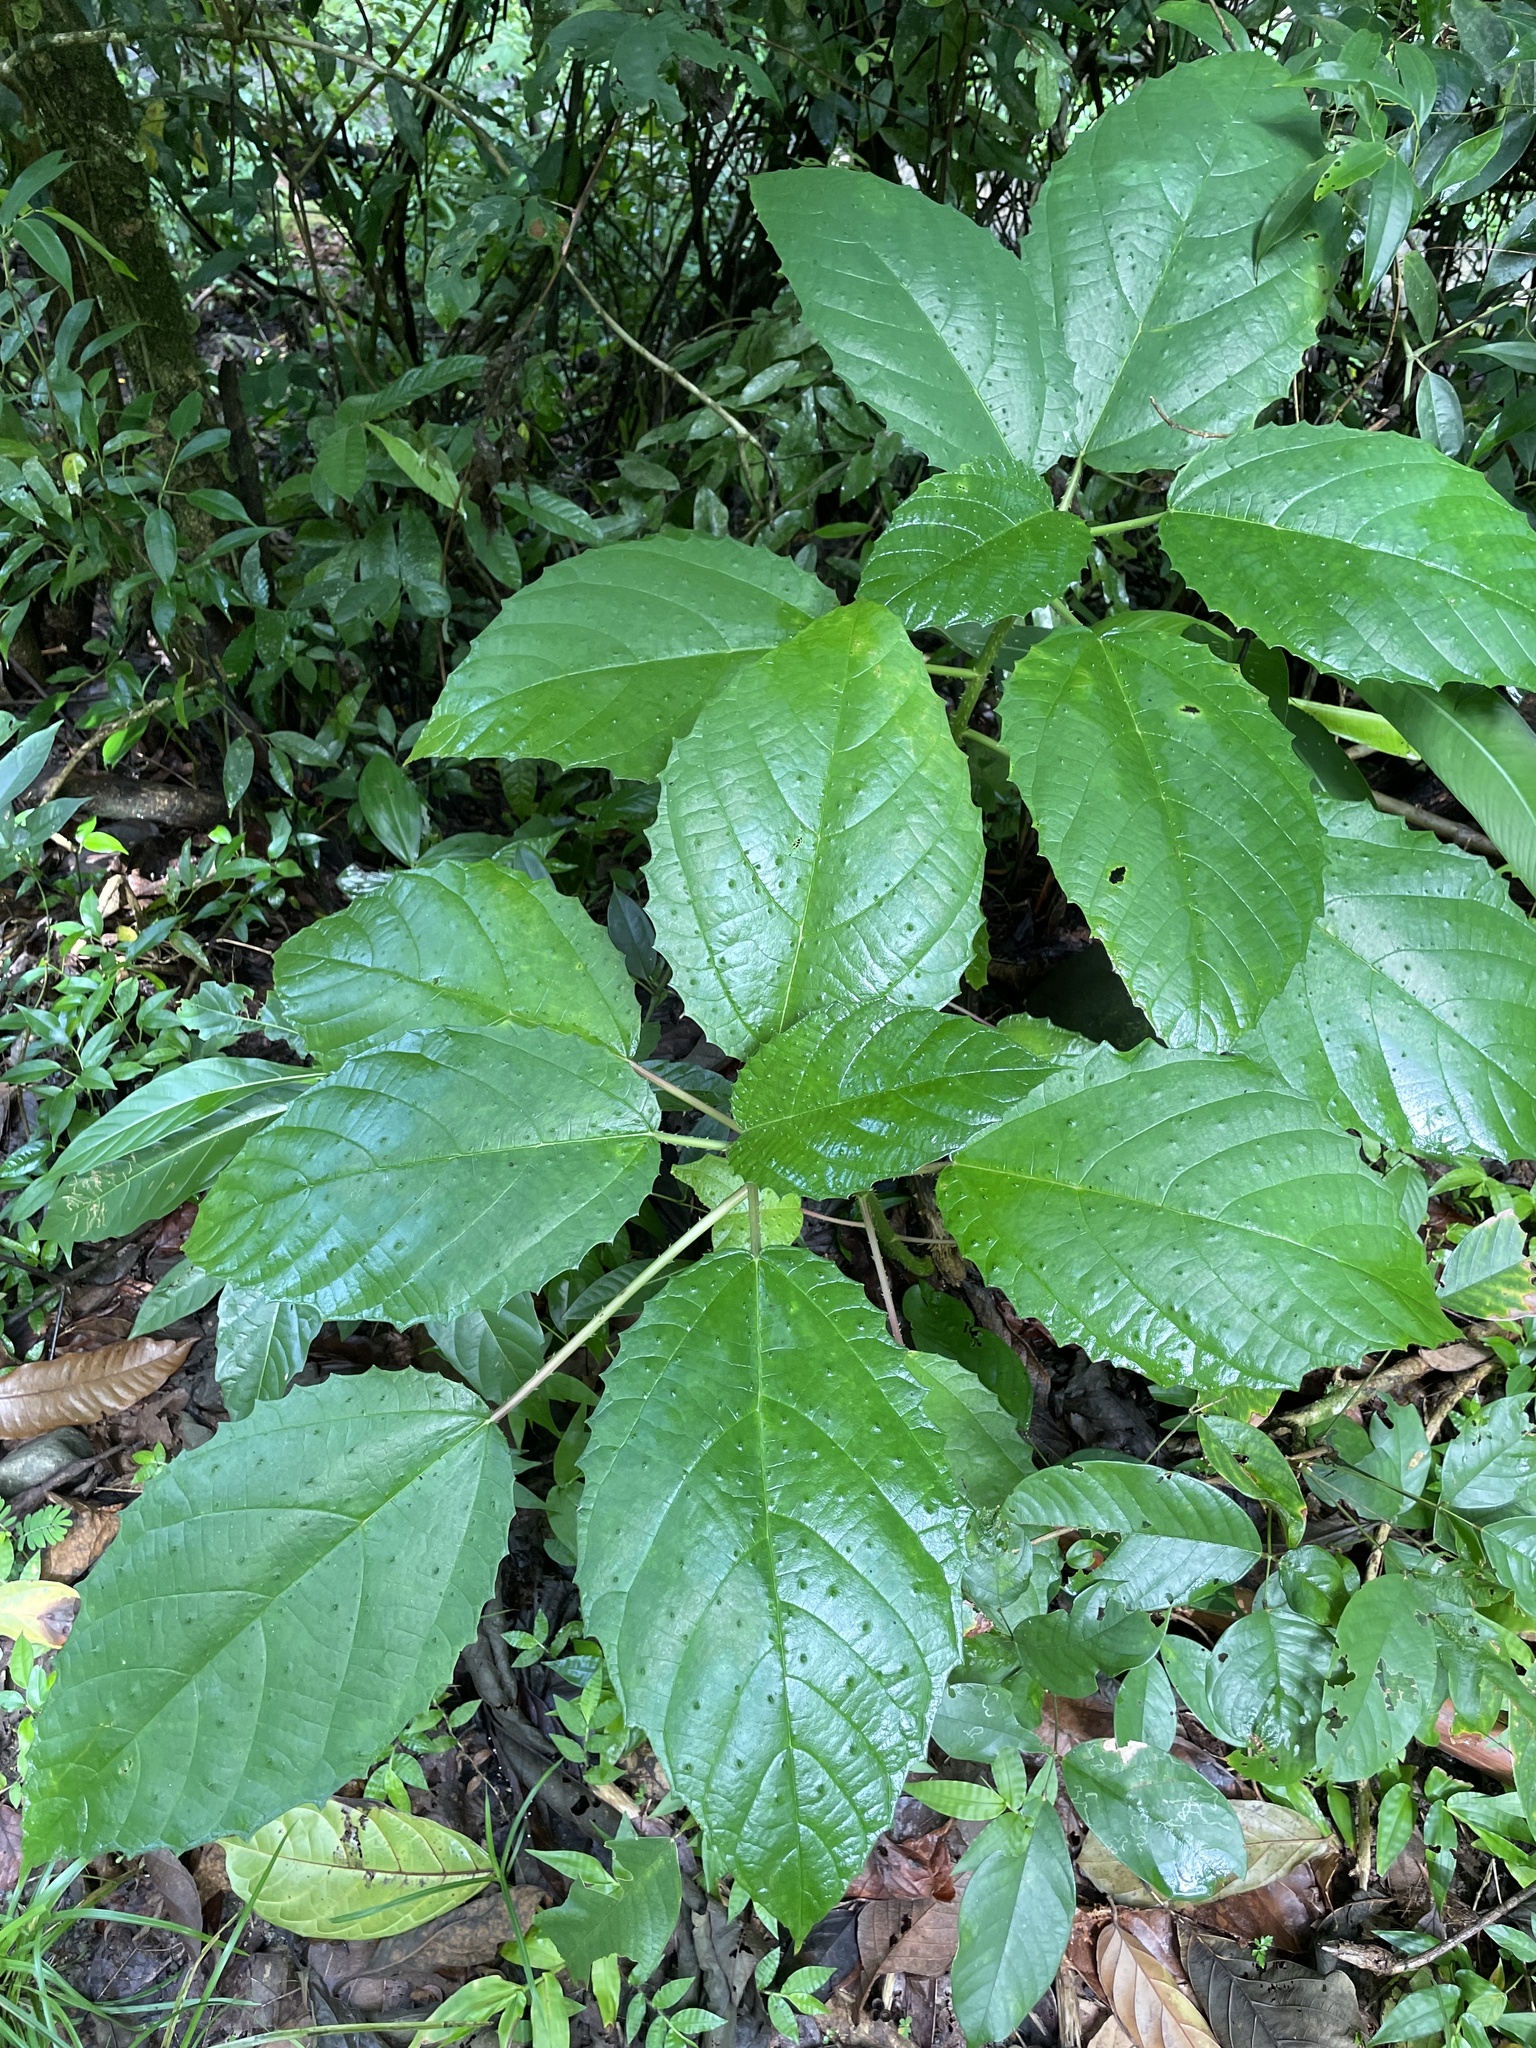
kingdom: Plantae
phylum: Tracheophyta
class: Magnoliopsida
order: Rosales
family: Urticaceae
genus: Urera
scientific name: Urera baccifera
